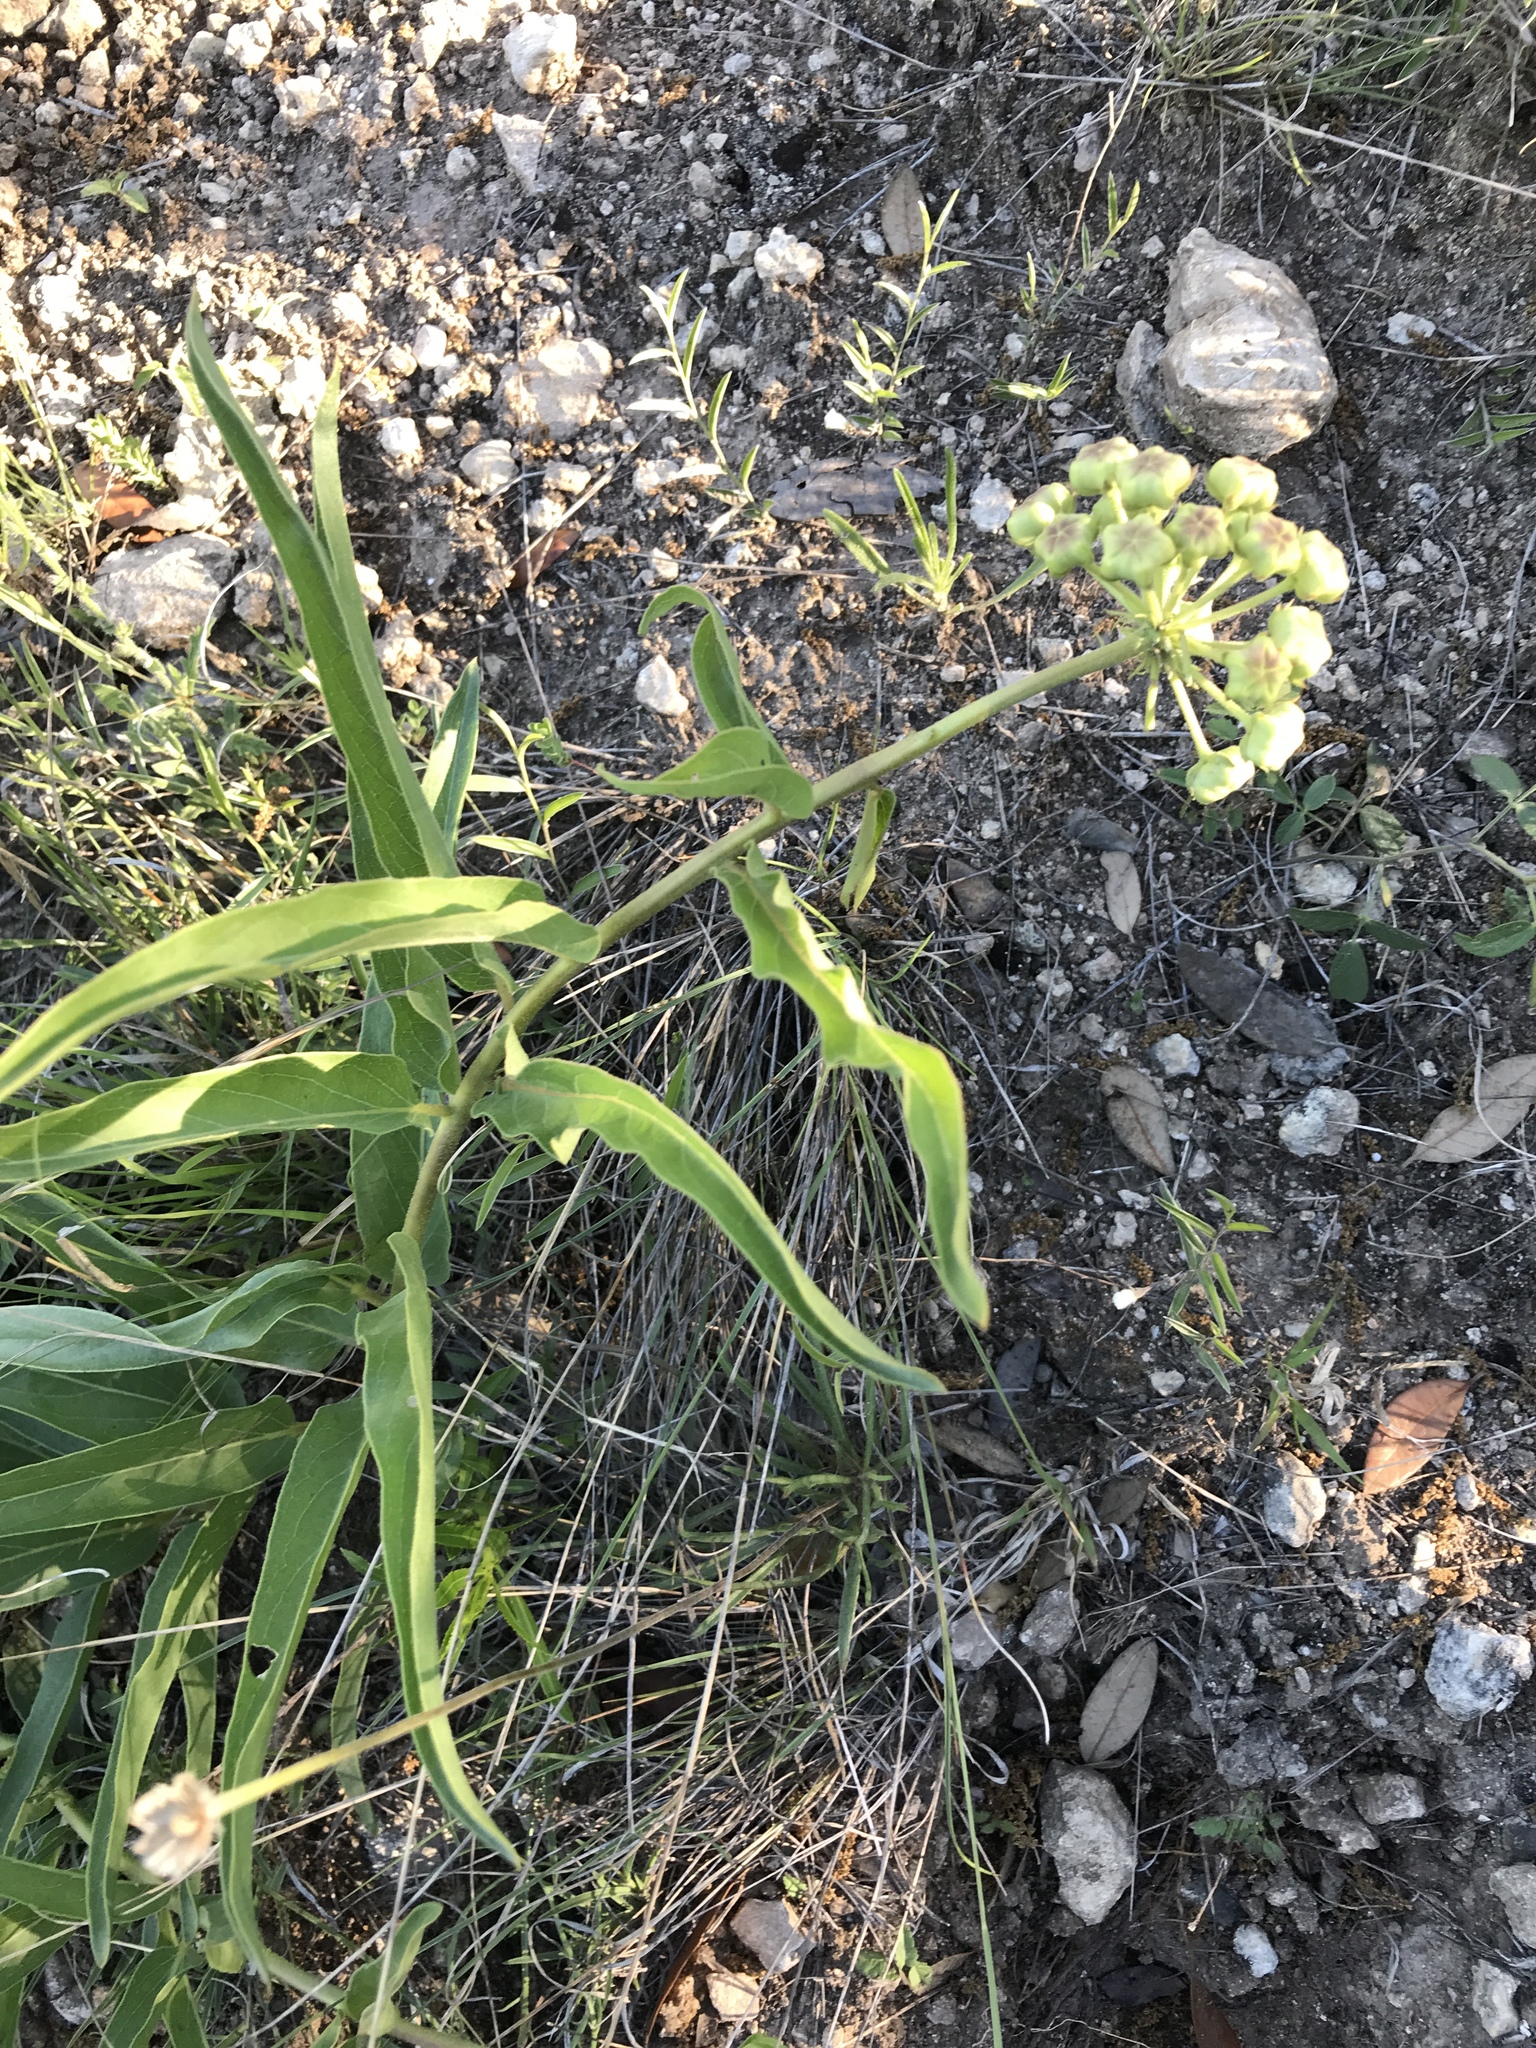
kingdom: Plantae
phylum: Tracheophyta
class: Magnoliopsida
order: Gentianales
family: Apocynaceae
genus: Asclepias
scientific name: Asclepias asperula
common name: Antelope horns
